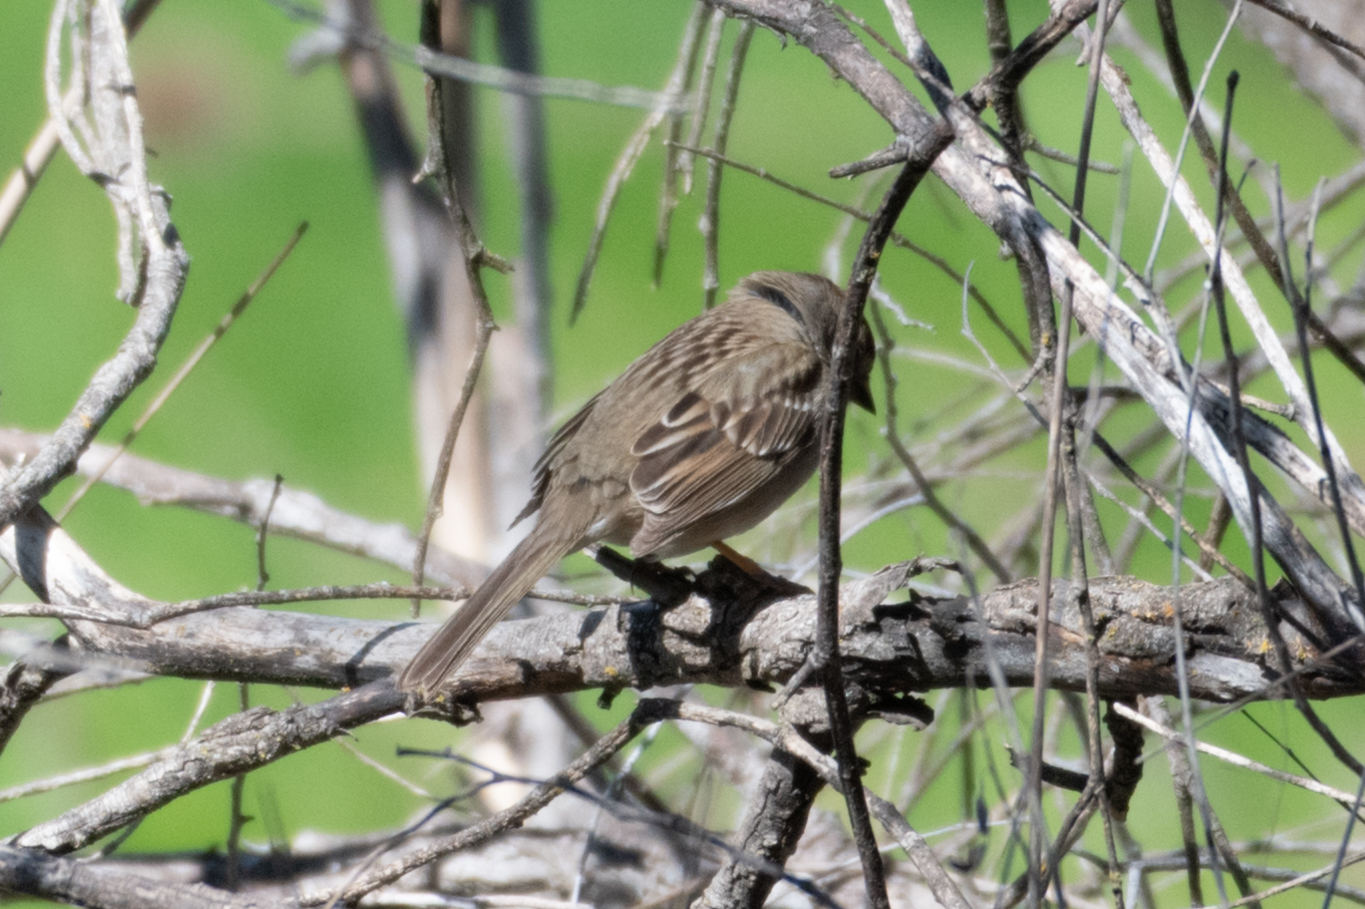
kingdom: Animalia
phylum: Chordata
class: Aves
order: Passeriformes
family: Passerellidae
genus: Zonotrichia
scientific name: Zonotrichia leucophrys
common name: White-crowned sparrow
